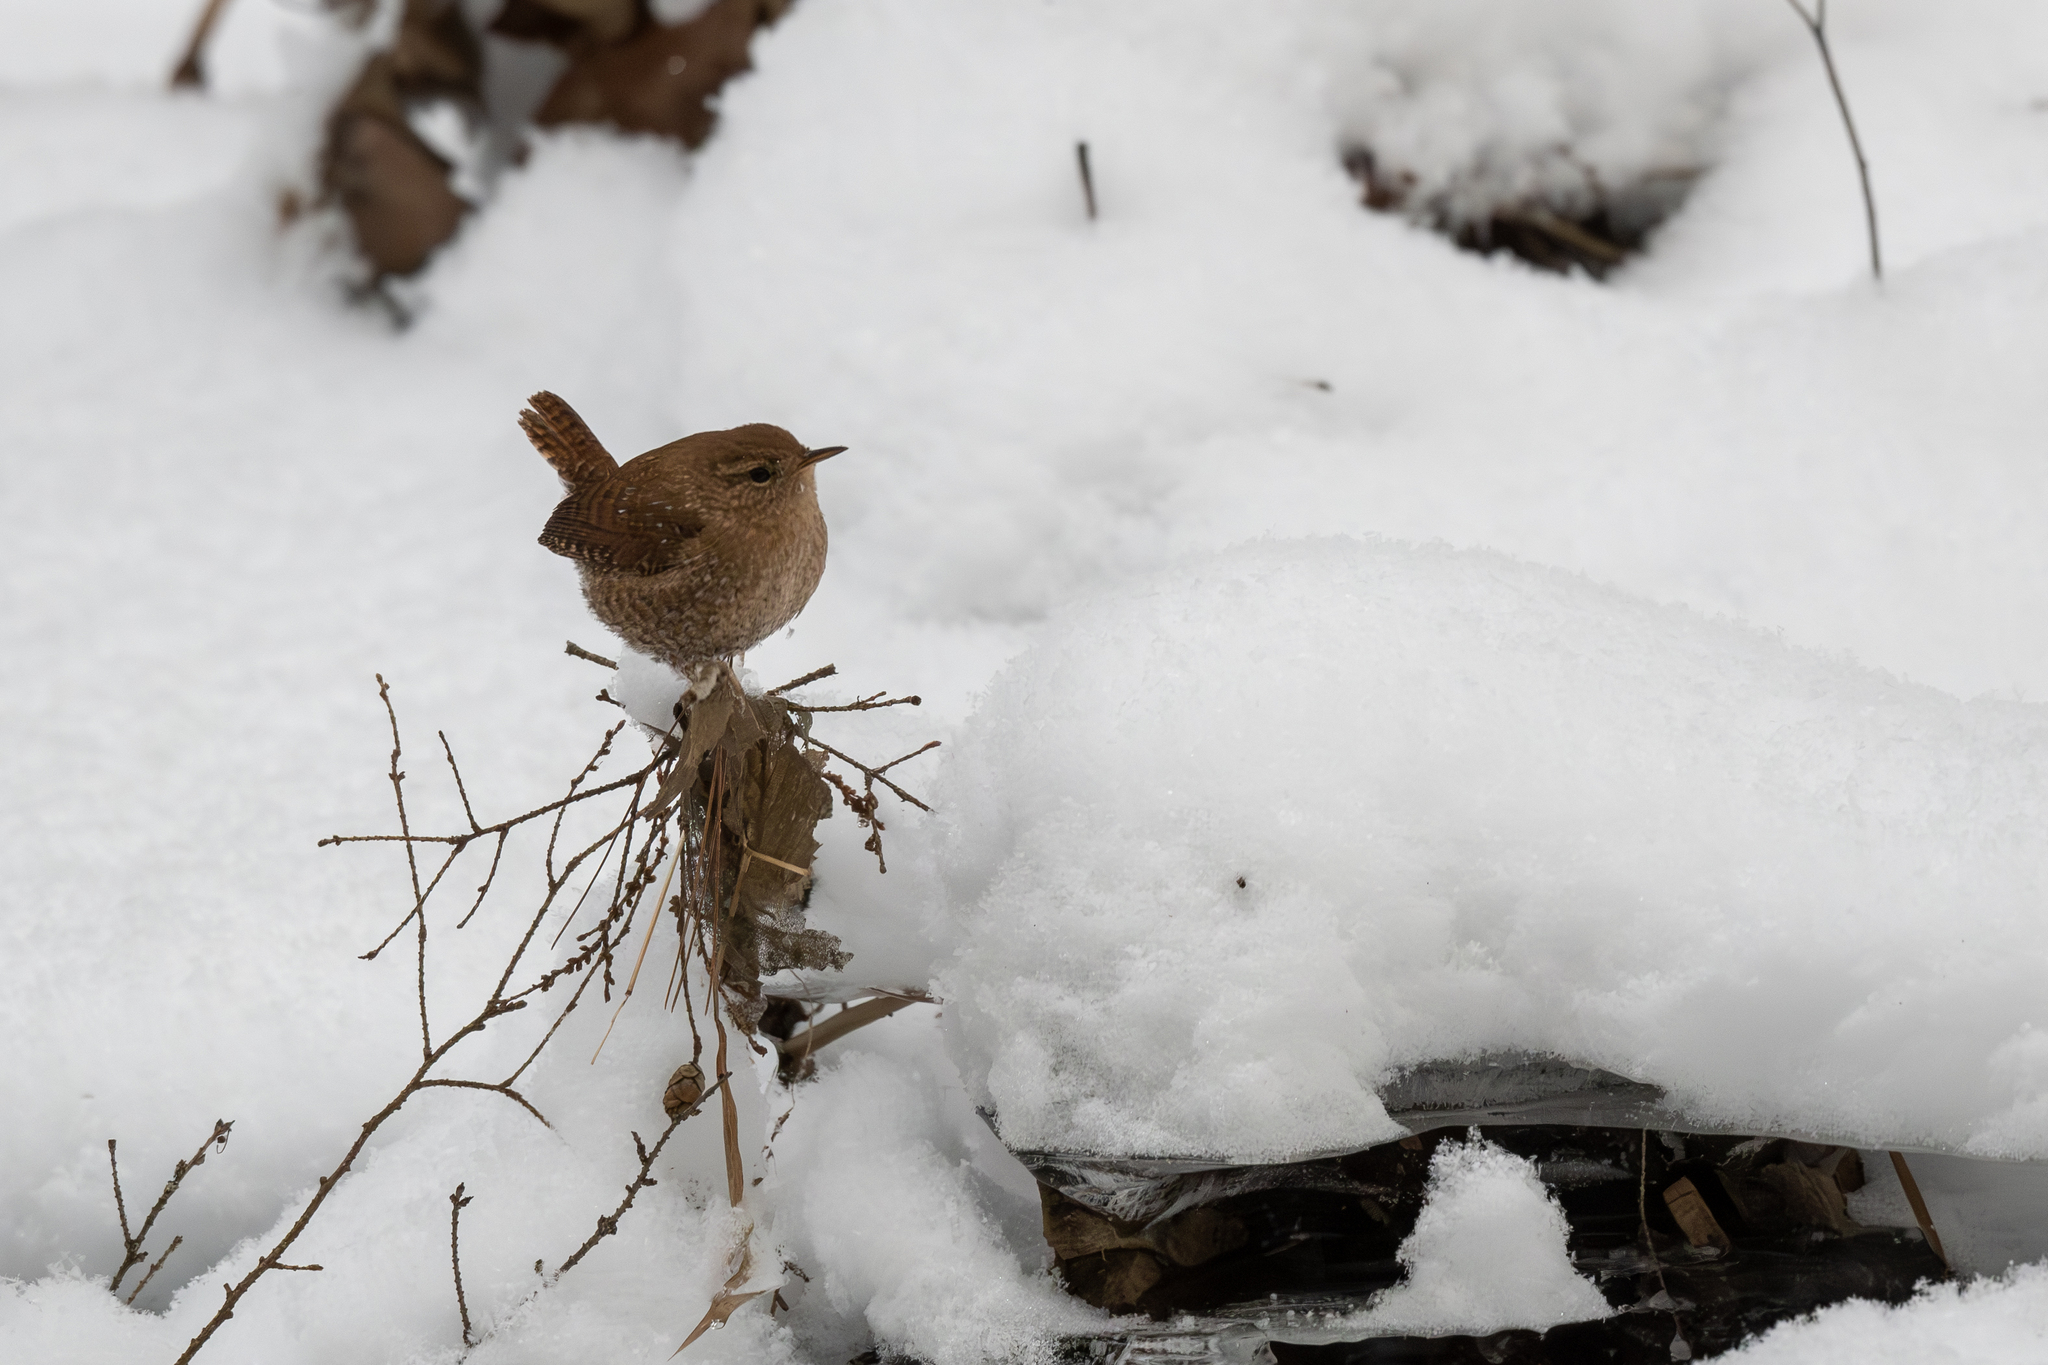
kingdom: Animalia
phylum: Chordata
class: Aves
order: Passeriformes
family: Troglodytidae
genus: Troglodytes
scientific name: Troglodytes hiemalis
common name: Winter wren
